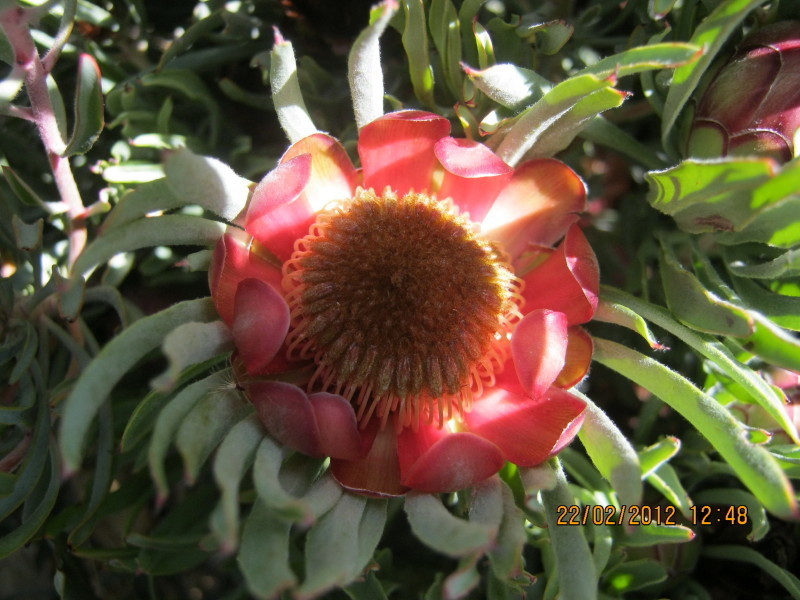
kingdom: Plantae
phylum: Tracheophyta
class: Magnoliopsida
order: Proteales
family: Proteaceae
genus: Protea
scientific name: Protea canaliculata
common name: Groove-leaf sugarbush
